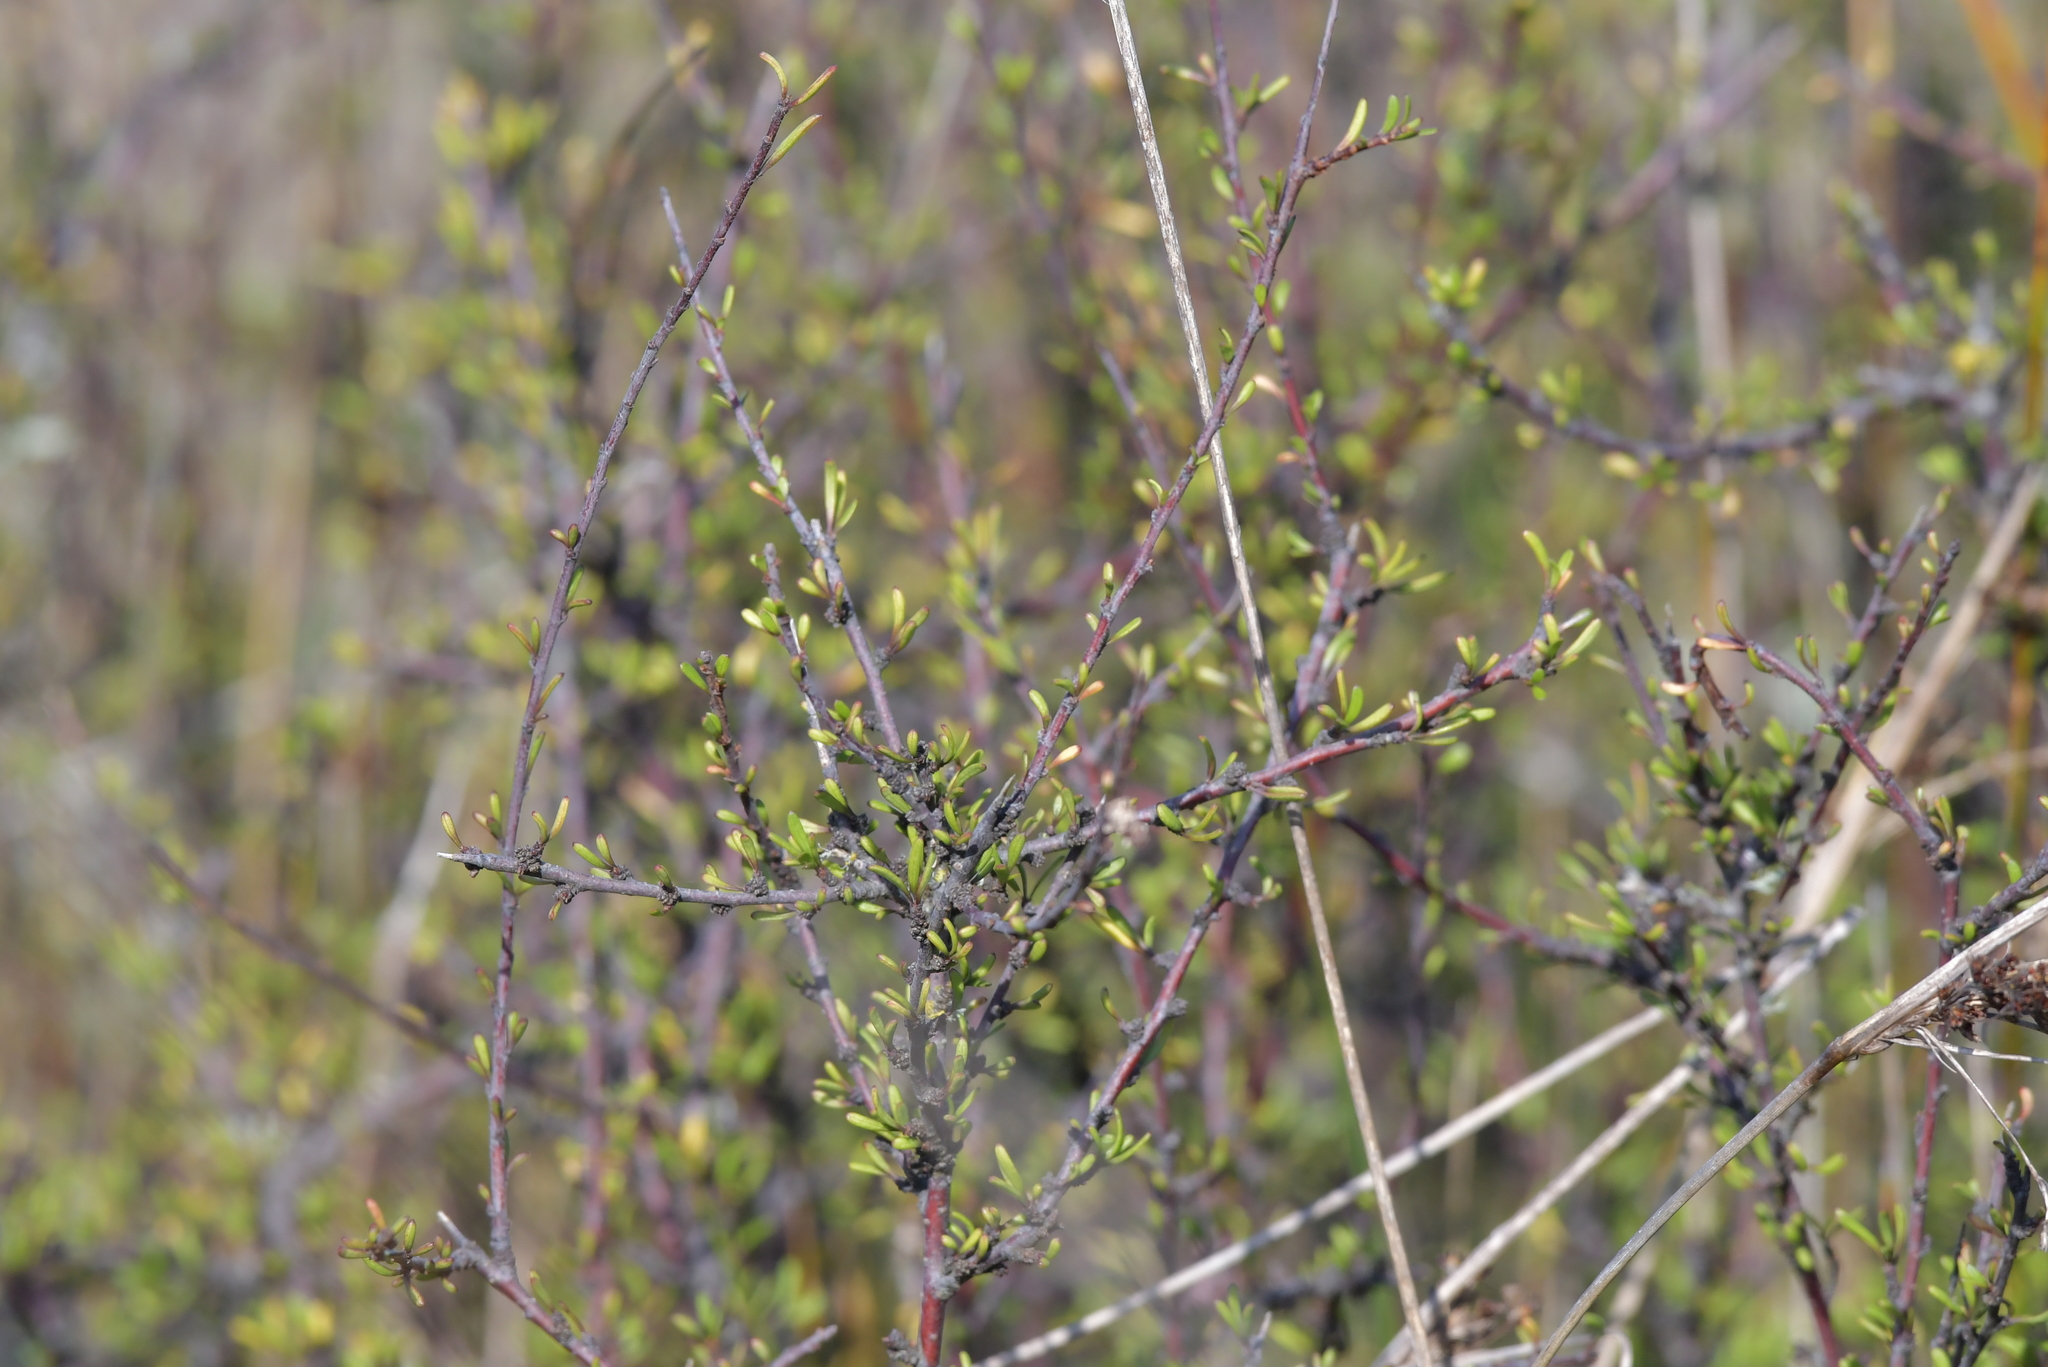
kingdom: Plantae
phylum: Tracheophyta
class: Magnoliopsida
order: Malvales
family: Malvaceae
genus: Plagianthus
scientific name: Plagianthus divaricatus
